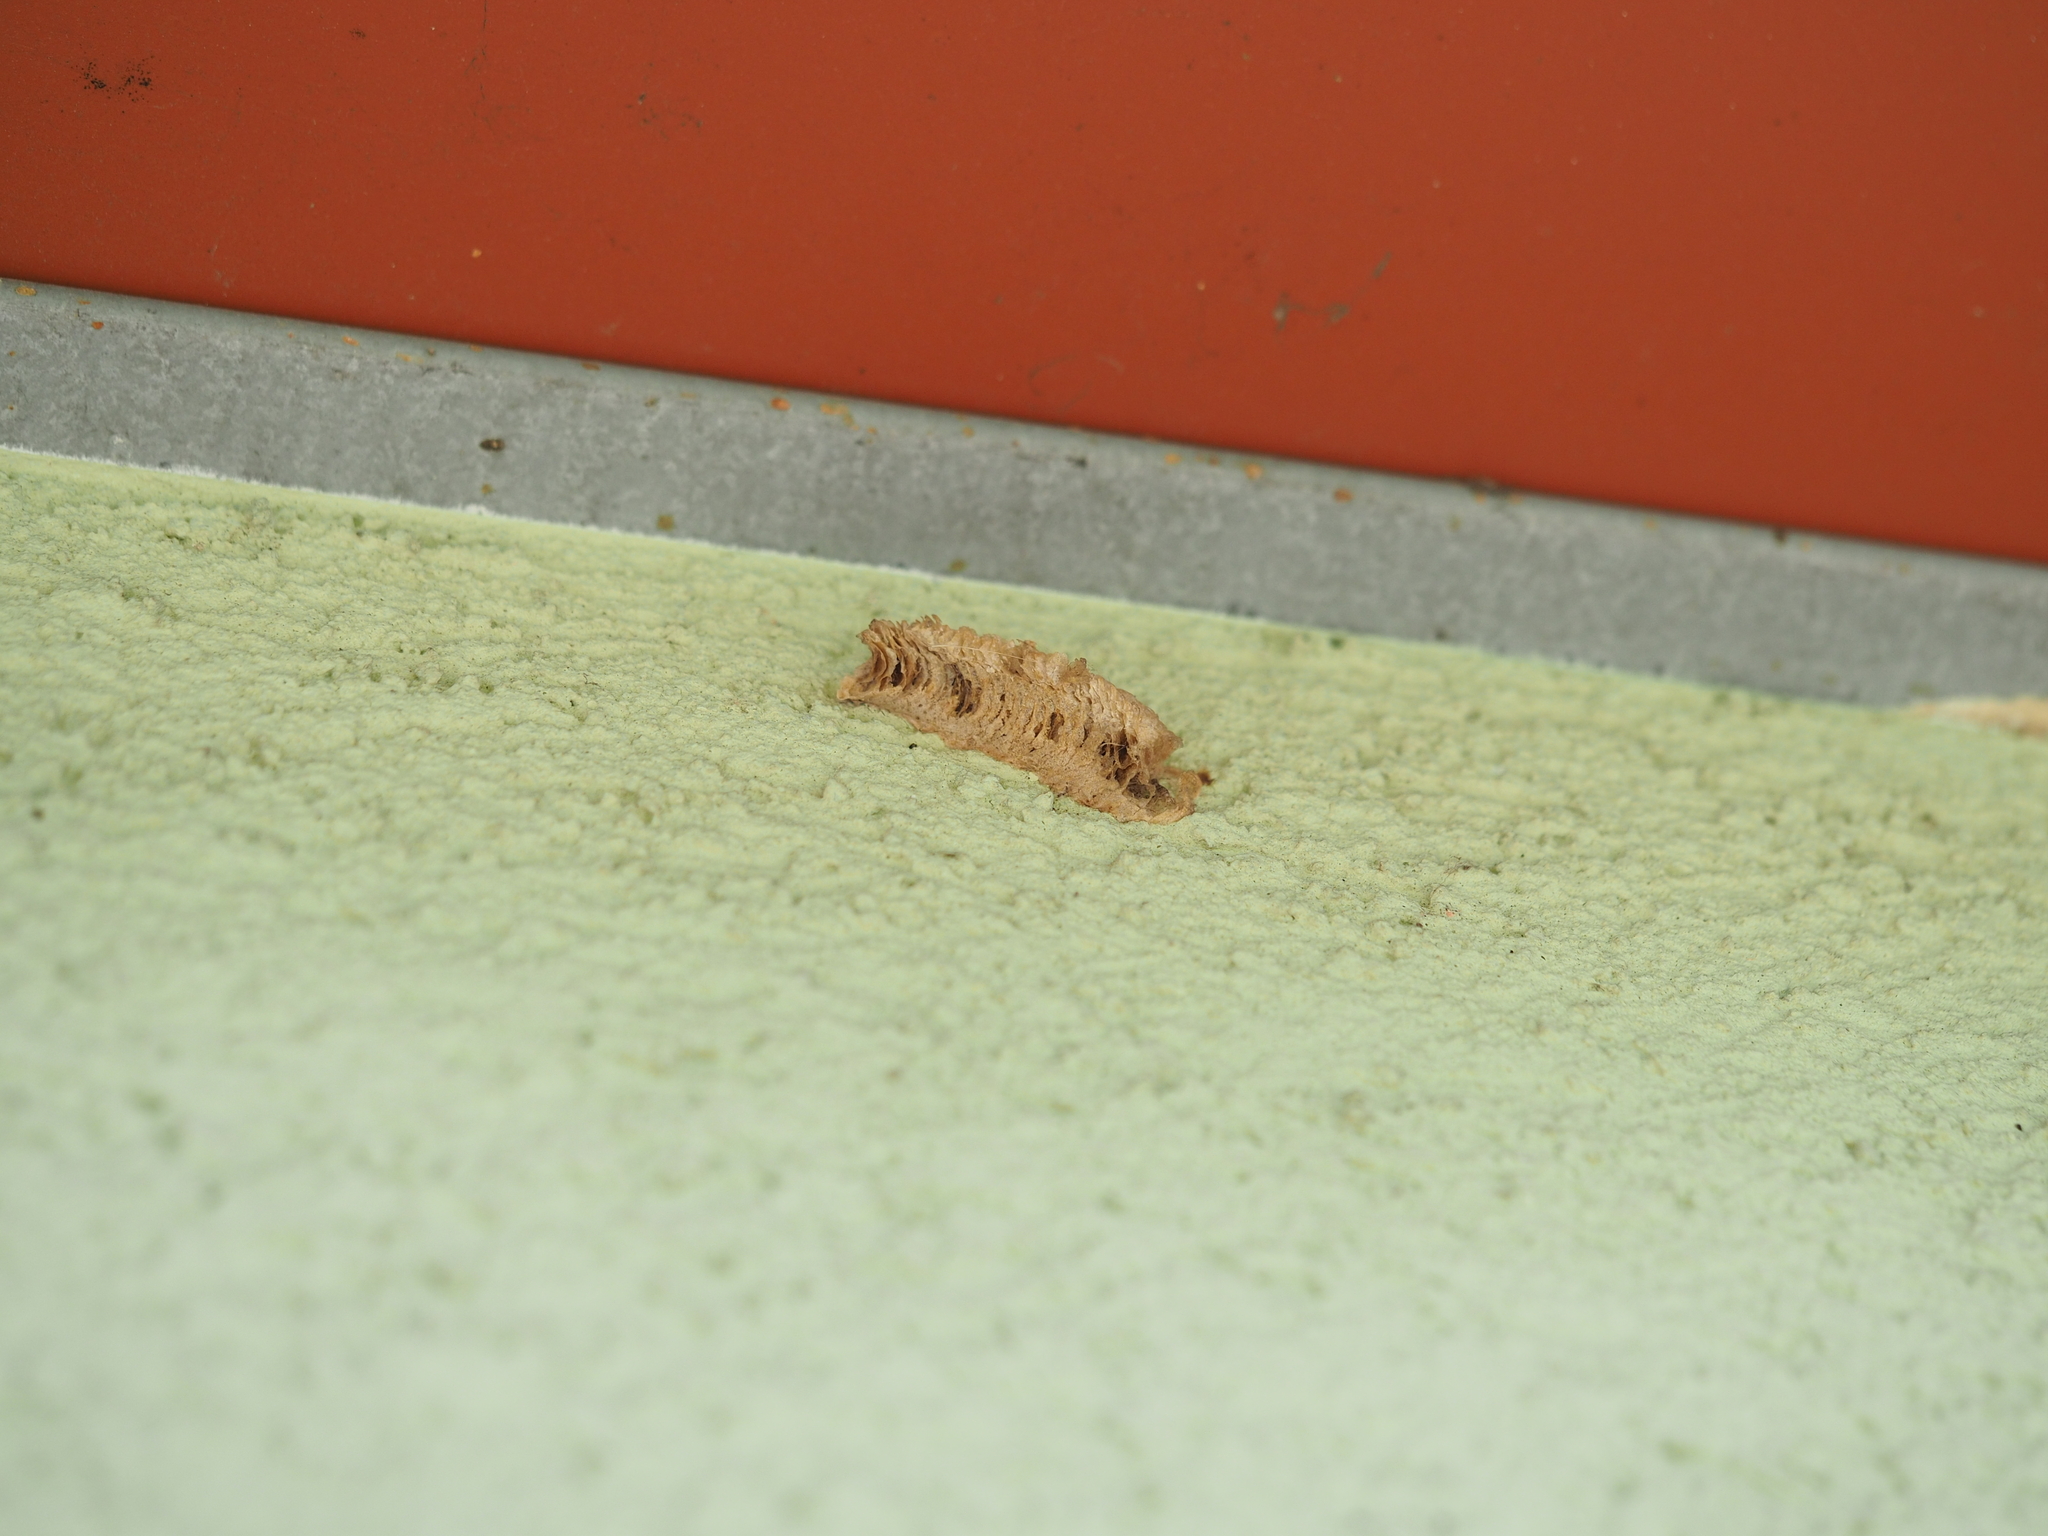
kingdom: Animalia
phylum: Arthropoda
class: Insecta
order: Mantodea
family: Mantidae
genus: Mantis
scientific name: Mantis religiosa
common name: Praying mantis
